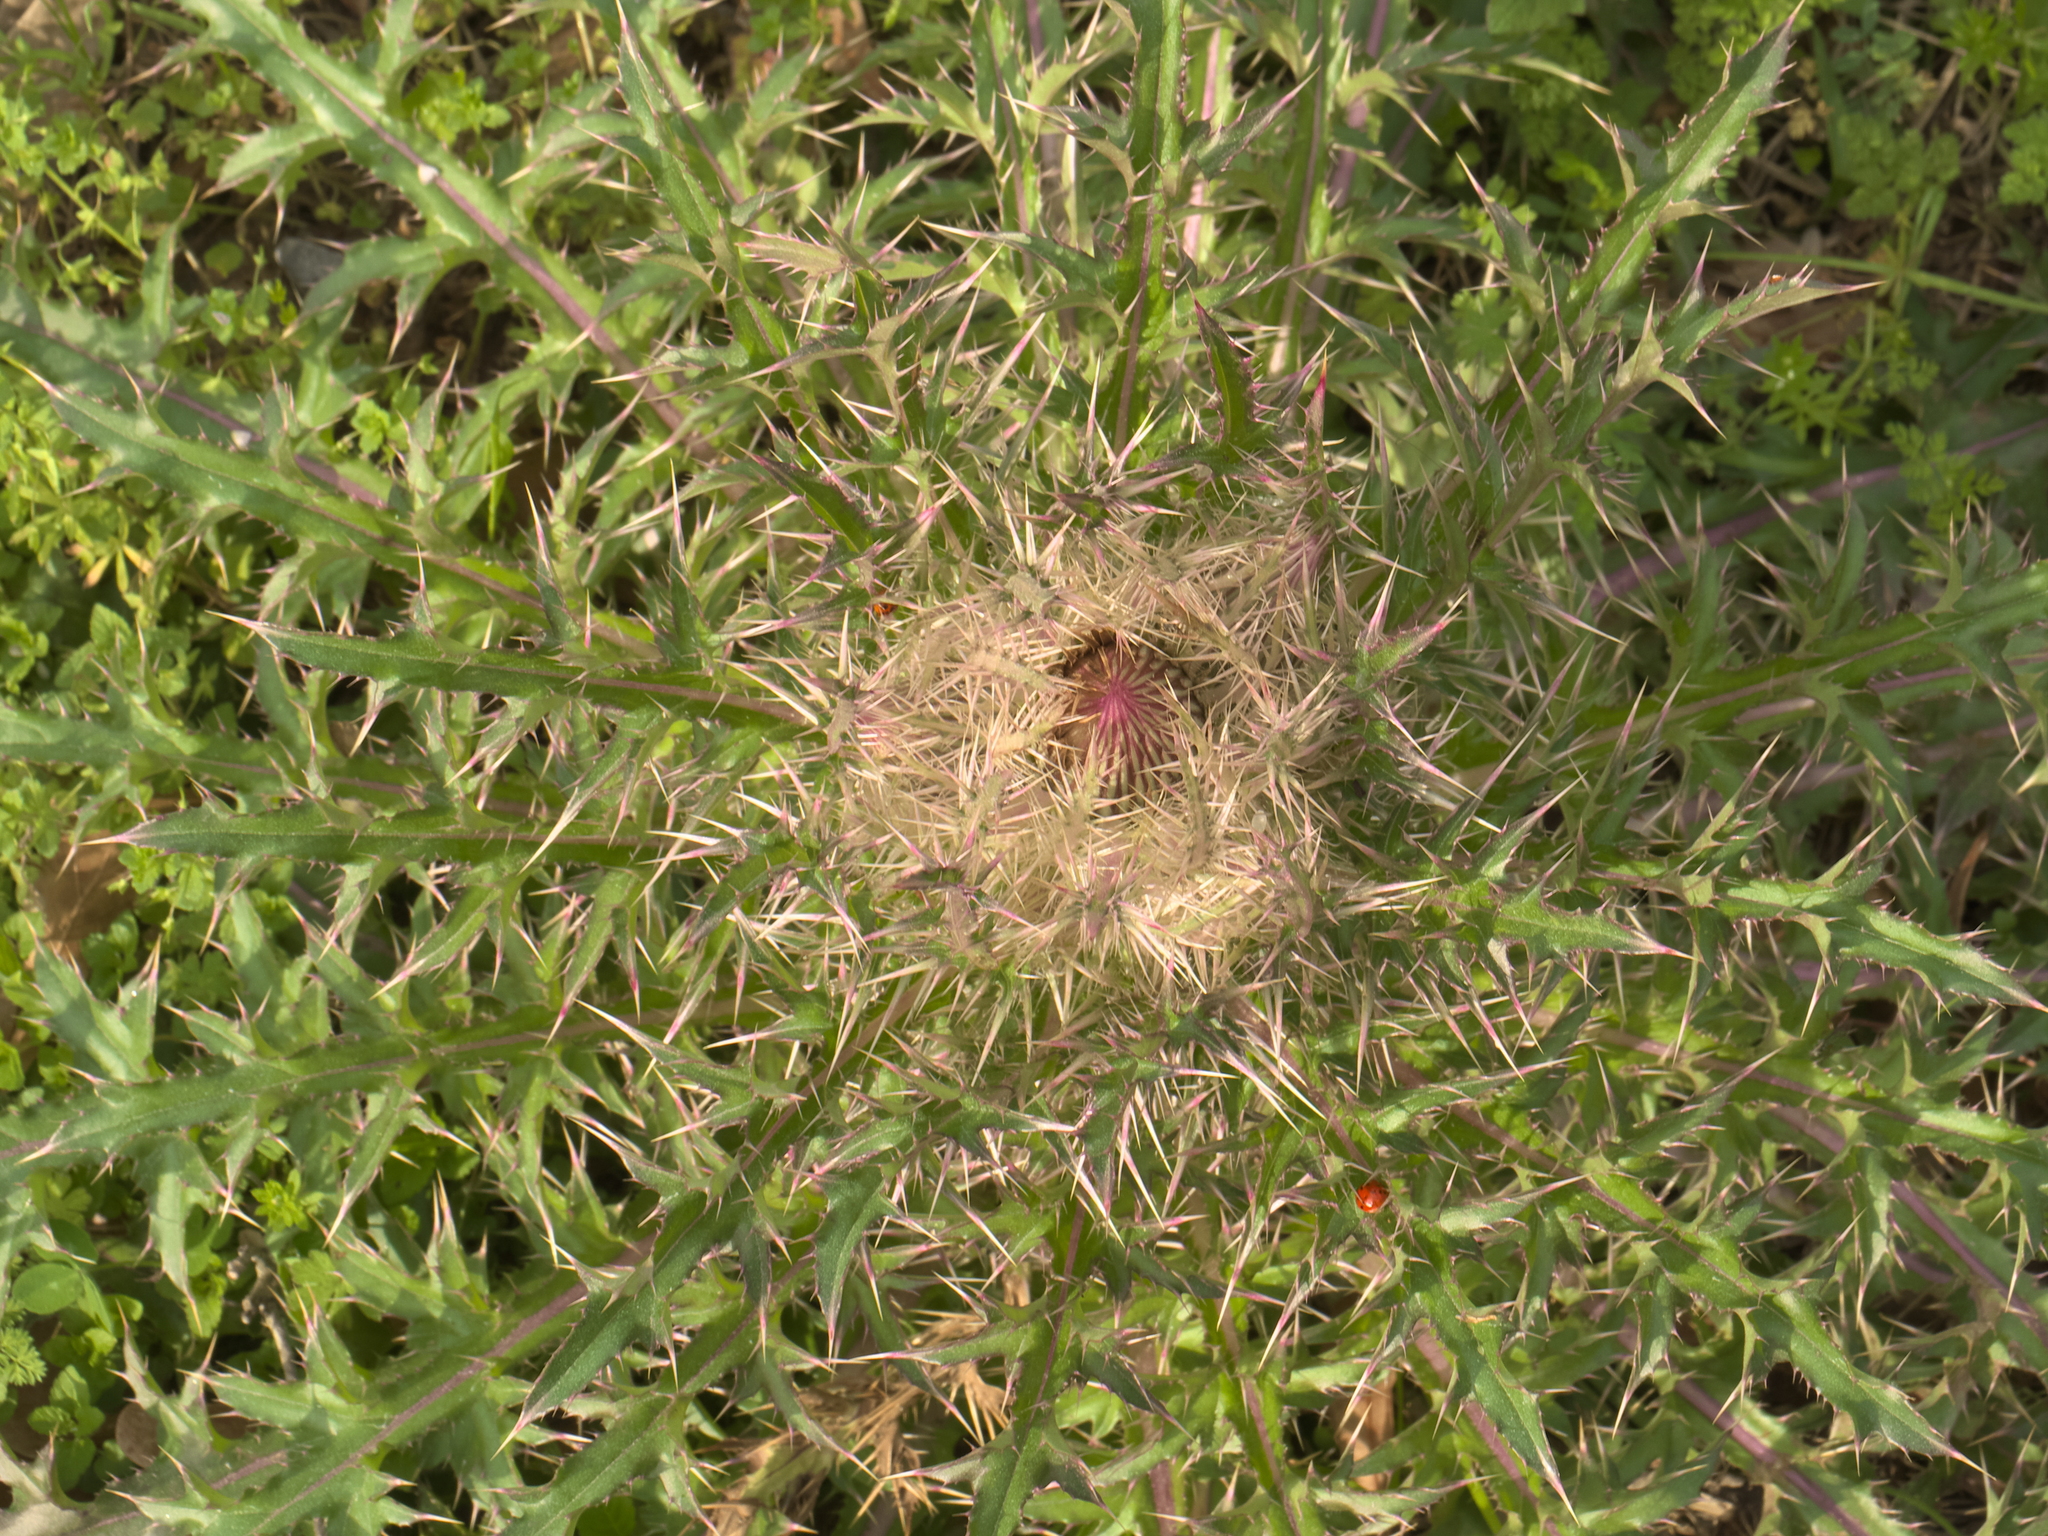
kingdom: Plantae
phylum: Tracheophyta
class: Magnoliopsida
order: Asterales
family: Asteraceae
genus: Cirsium
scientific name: Cirsium horridulum
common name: Bristly thistle
